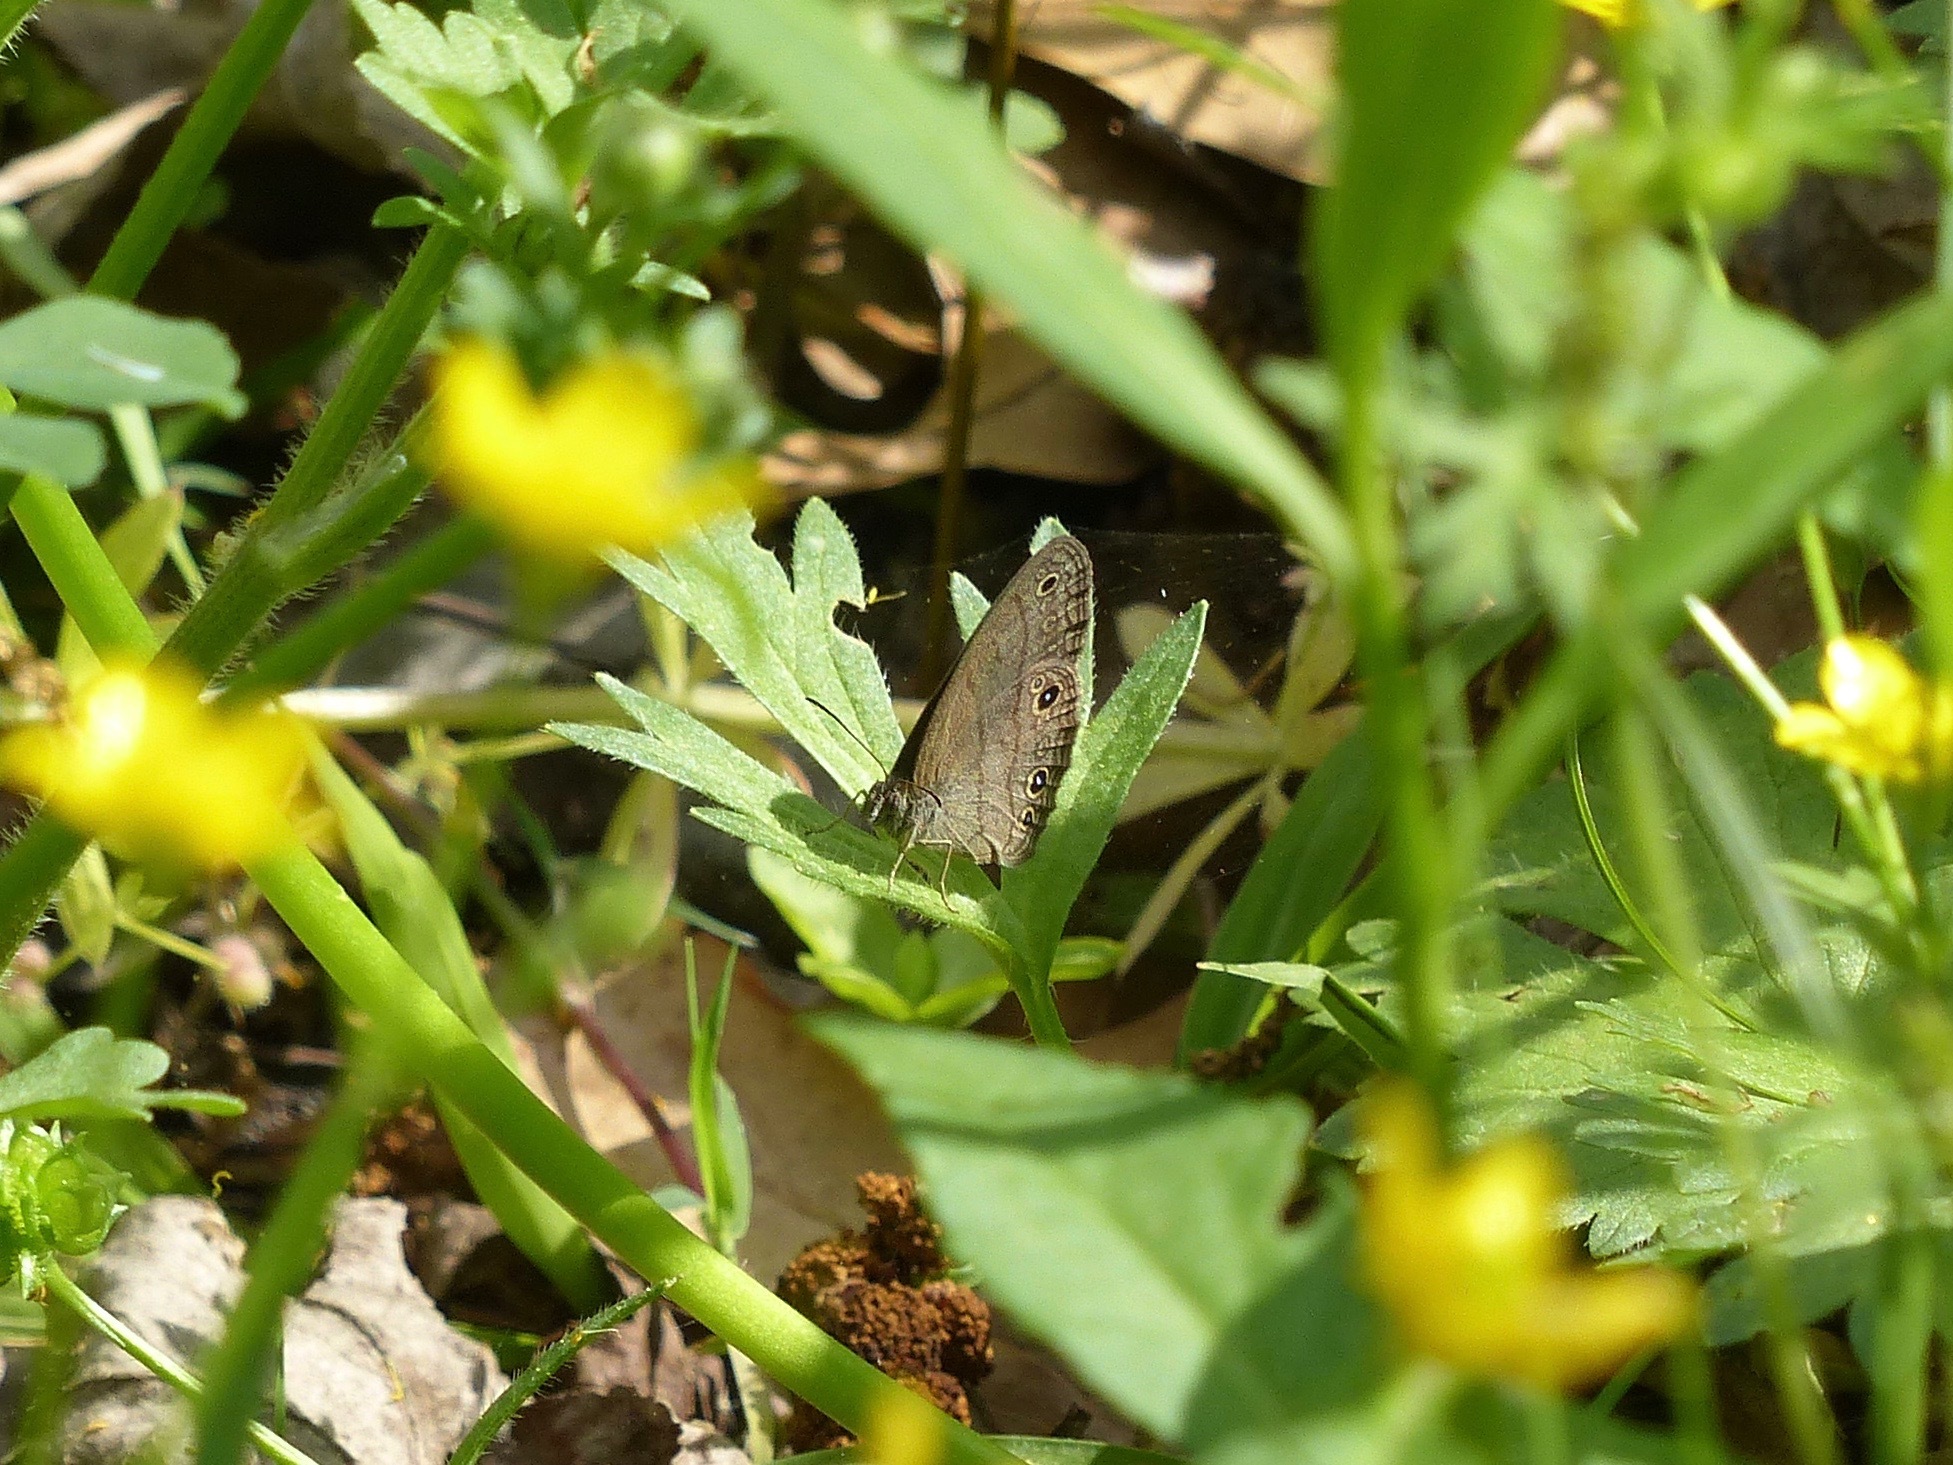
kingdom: Animalia
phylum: Arthropoda
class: Insecta
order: Lepidoptera
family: Nymphalidae
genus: Hermeuptychia
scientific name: Hermeuptychia hermes
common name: Hermes satyr
